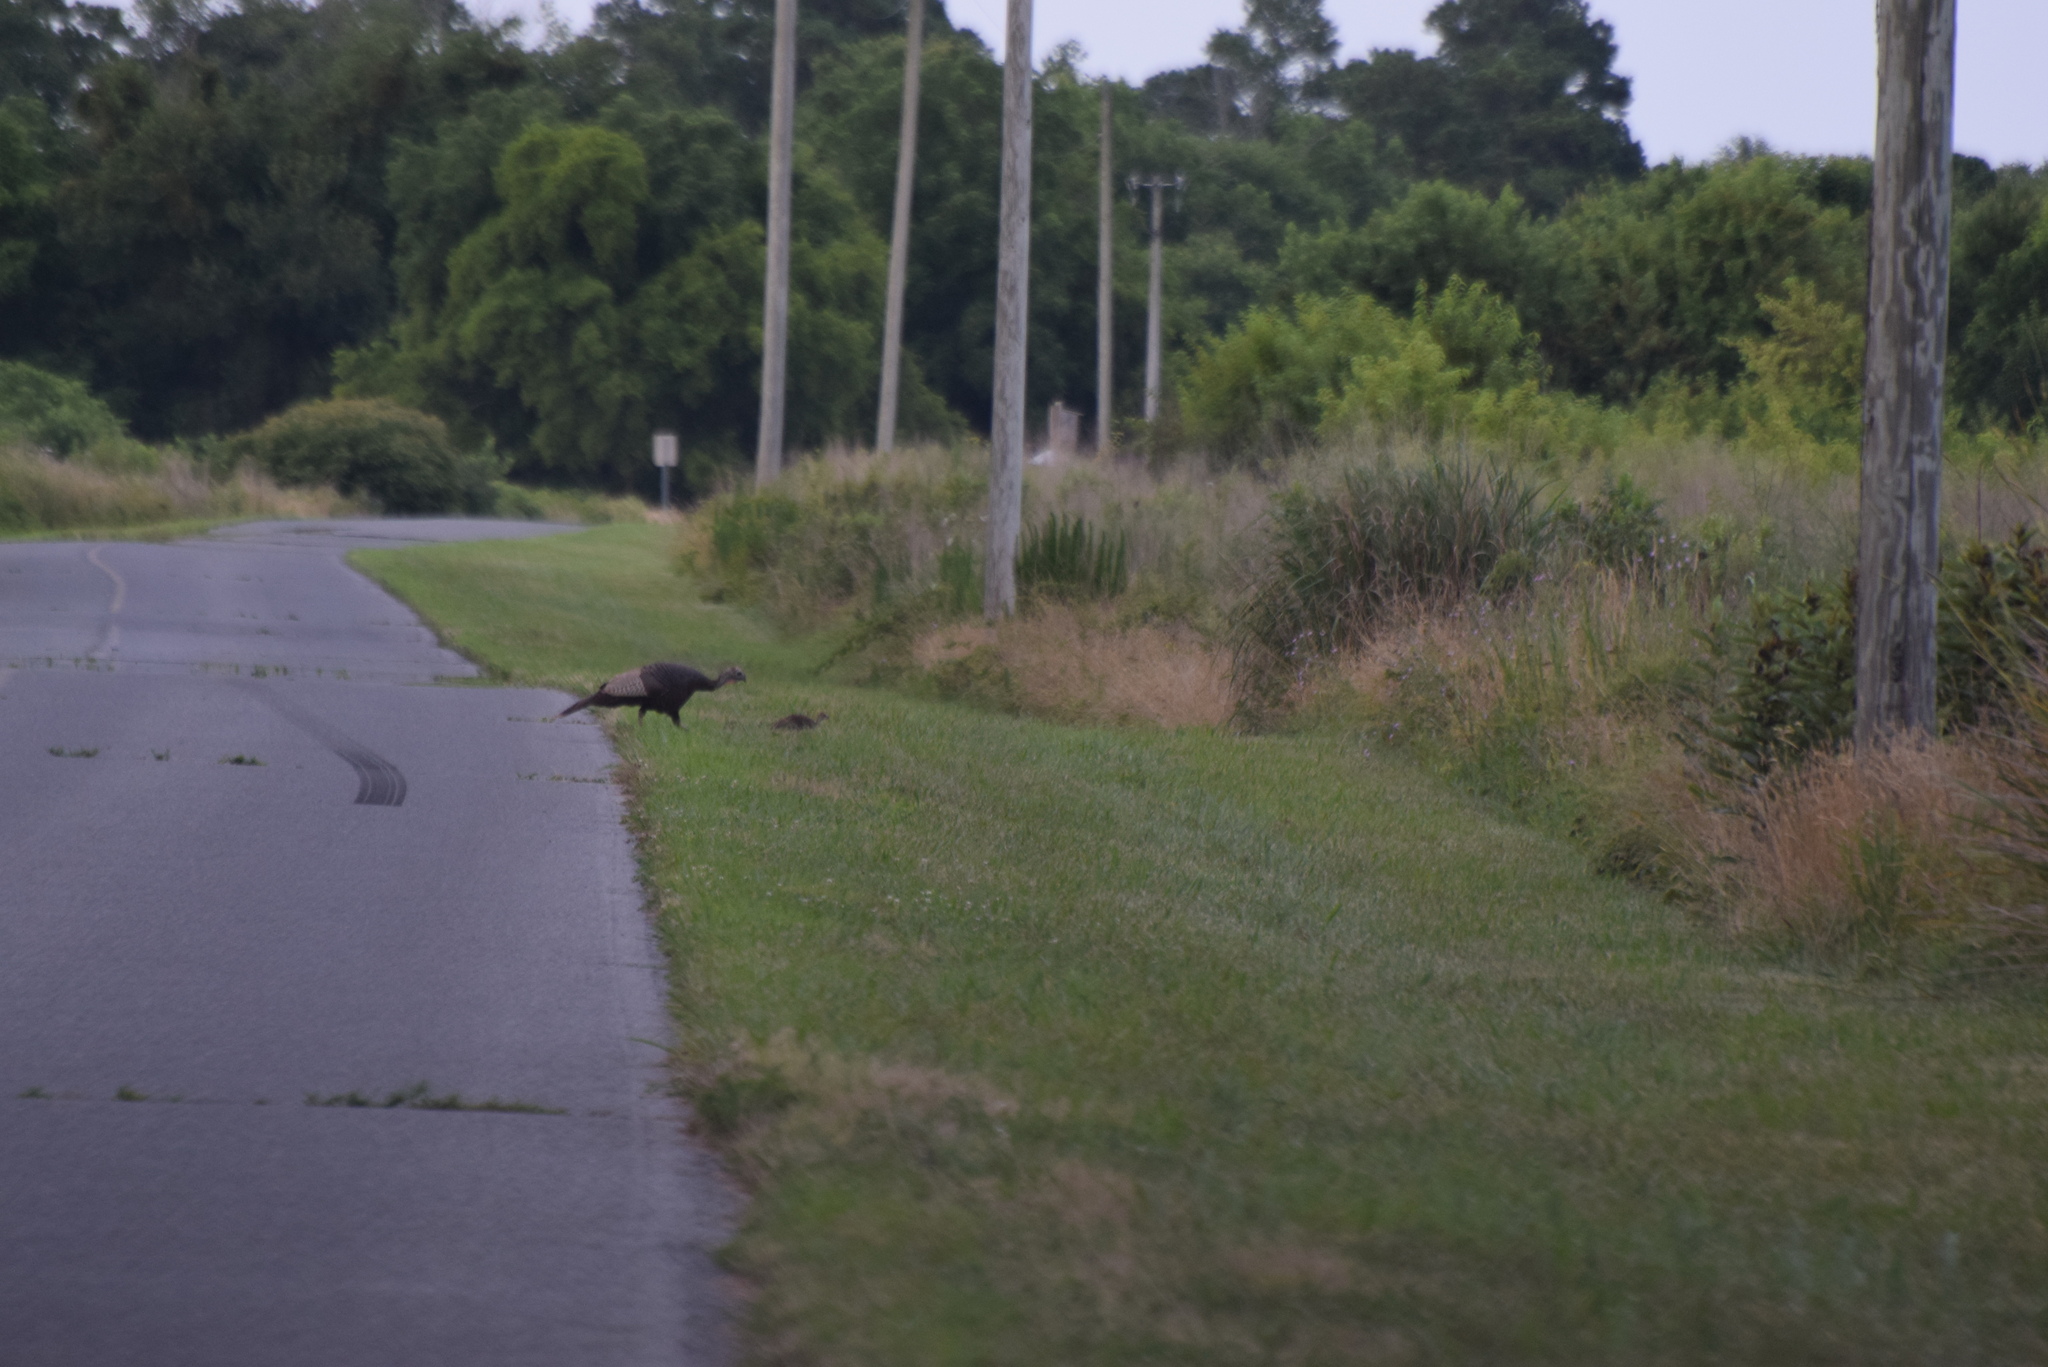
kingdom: Animalia
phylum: Chordata
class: Aves
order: Galliformes
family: Phasianidae
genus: Meleagris
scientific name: Meleagris gallopavo
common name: Wild turkey
